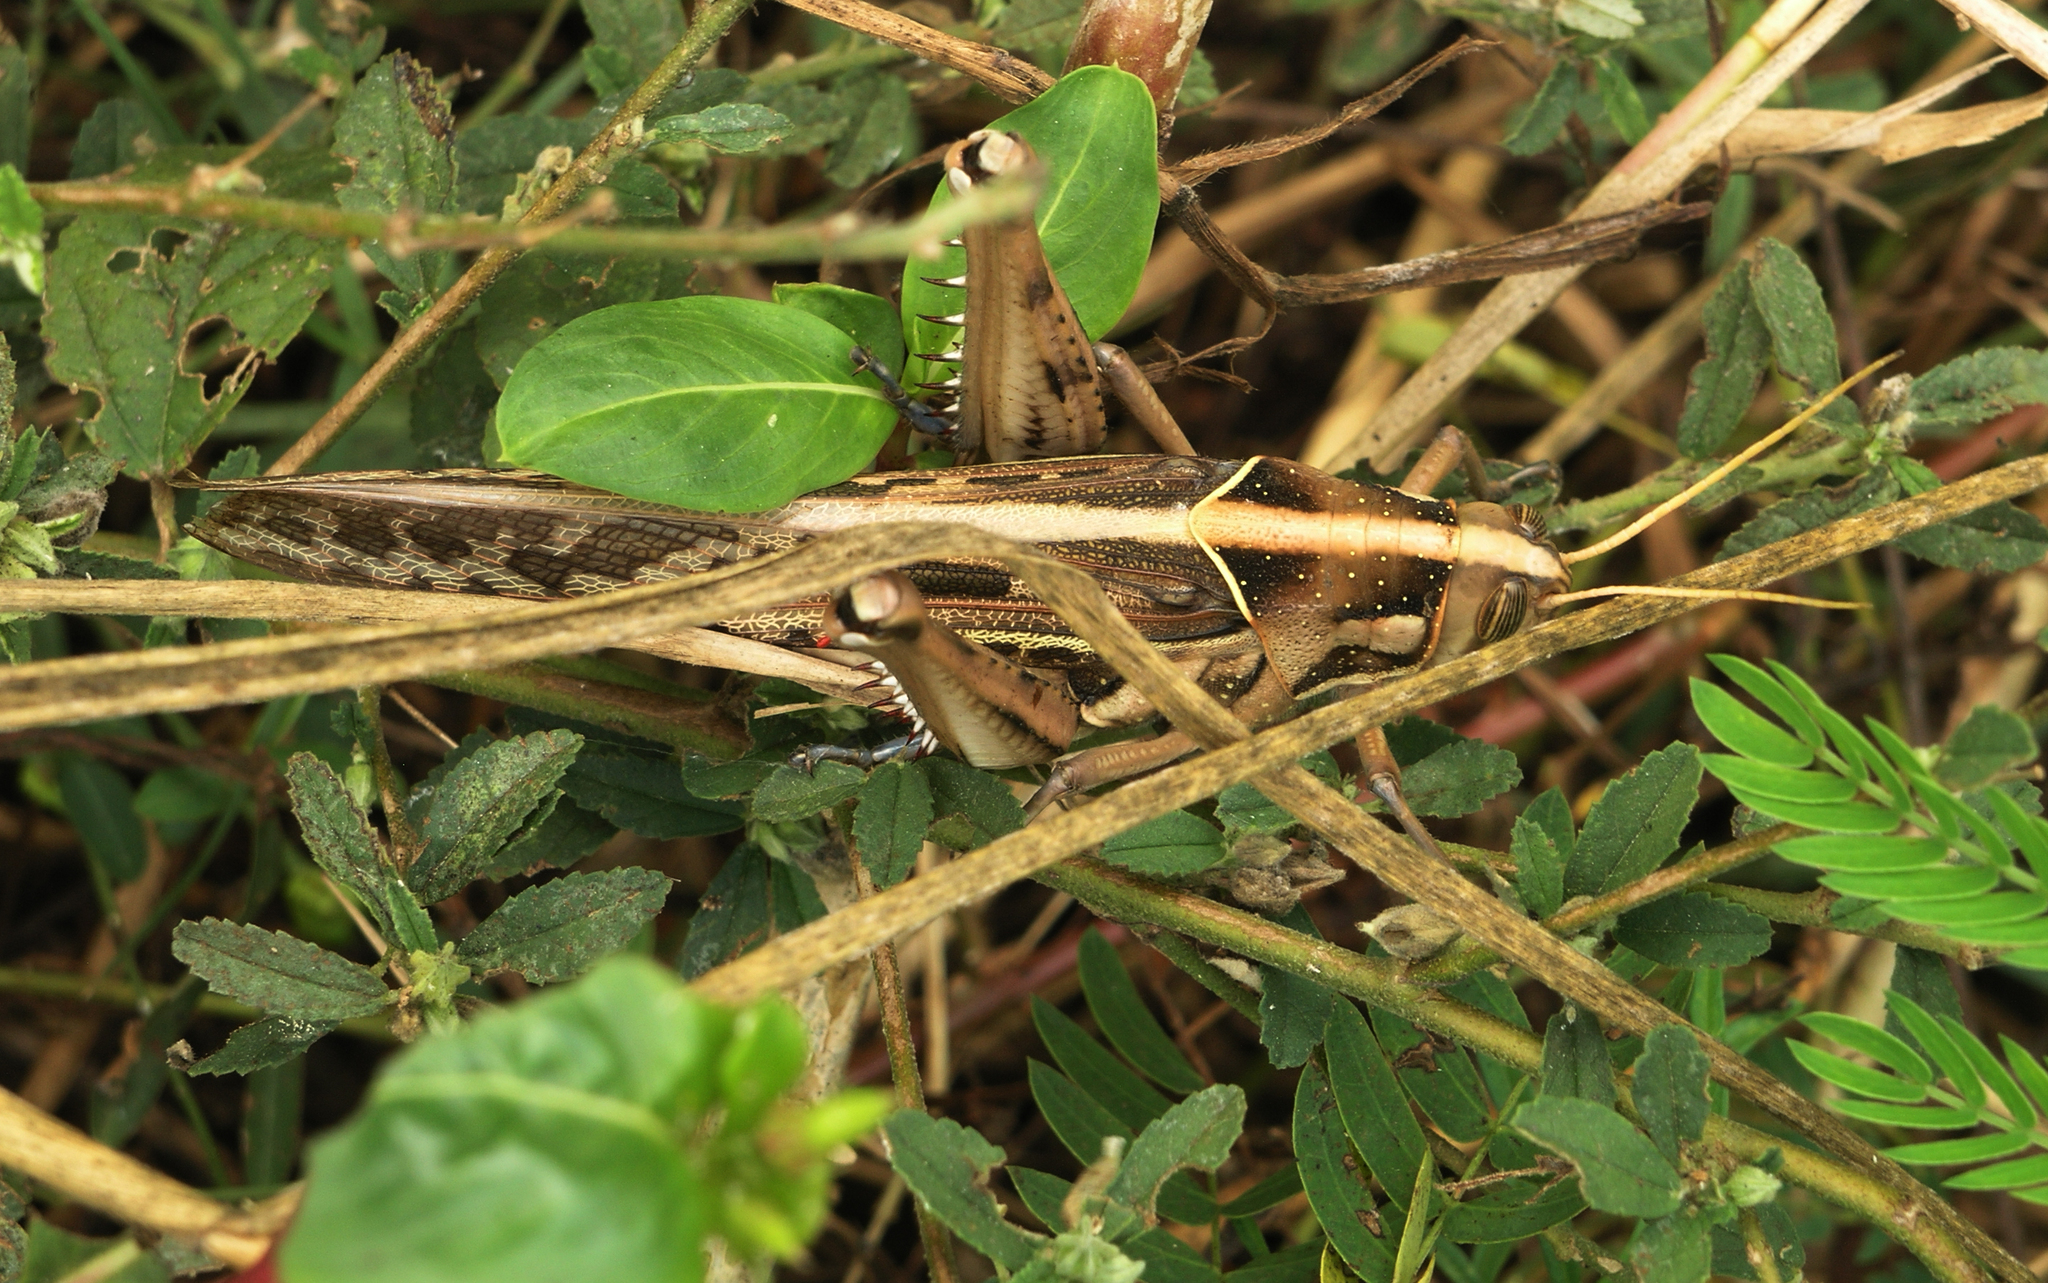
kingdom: Animalia
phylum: Arthropoda
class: Insecta
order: Orthoptera
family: Acrididae
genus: Cyrtacanthacris
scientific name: Cyrtacanthacris tatarica
